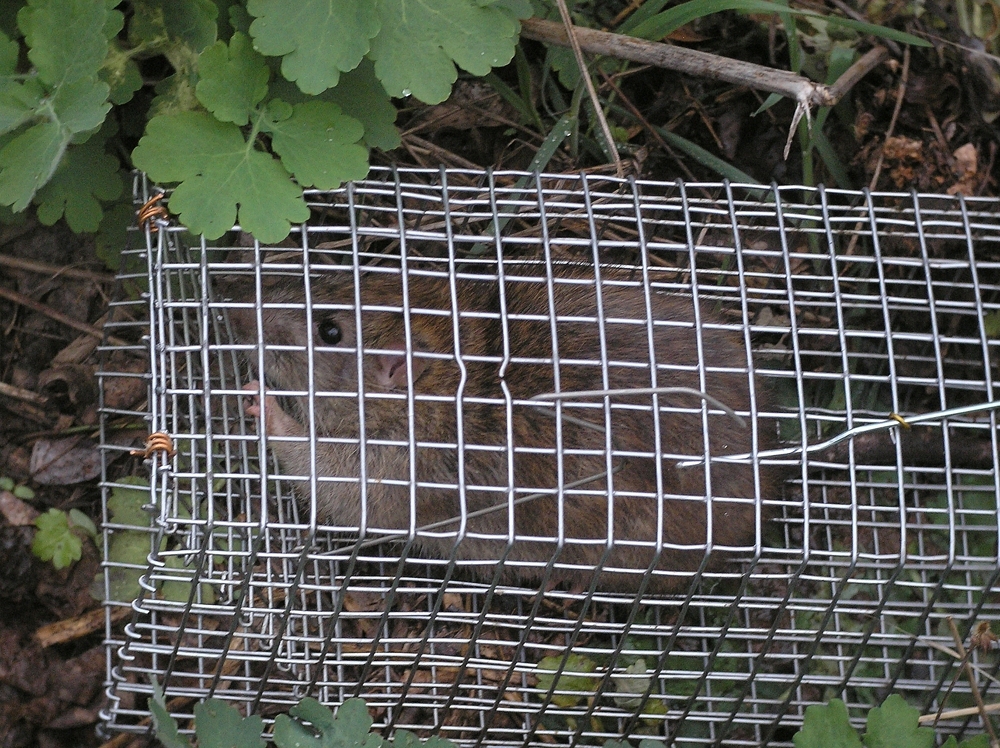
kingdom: Animalia
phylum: Chordata
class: Mammalia
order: Rodentia
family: Muridae
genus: Rattus
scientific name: Rattus norvegicus
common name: Brown rat
